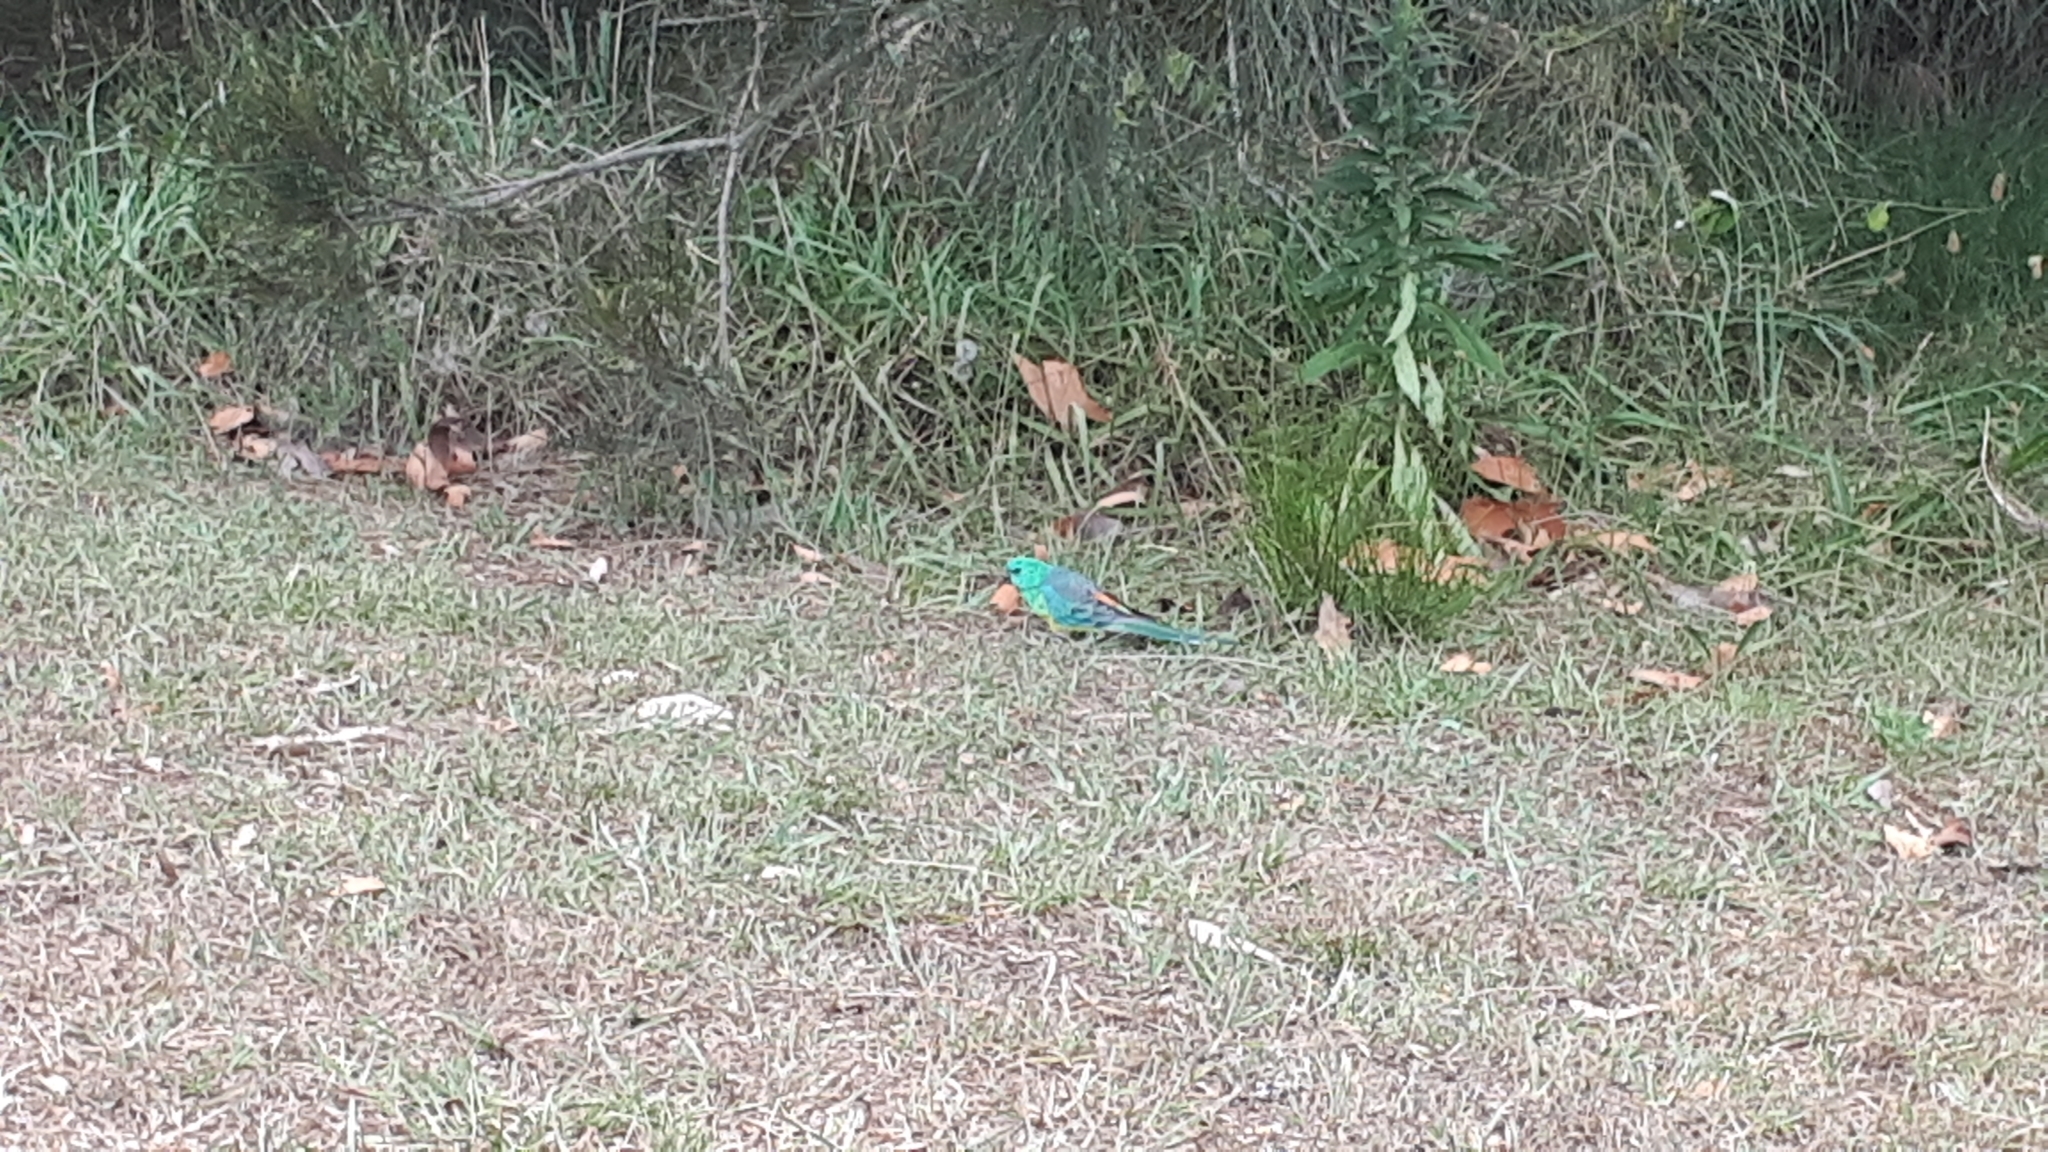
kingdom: Animalia
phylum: Chordata
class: Aves
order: Psittaciformes
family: Psittacidae
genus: Psephotus
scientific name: Psephotus haematonotus
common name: Red-rumped parrot
